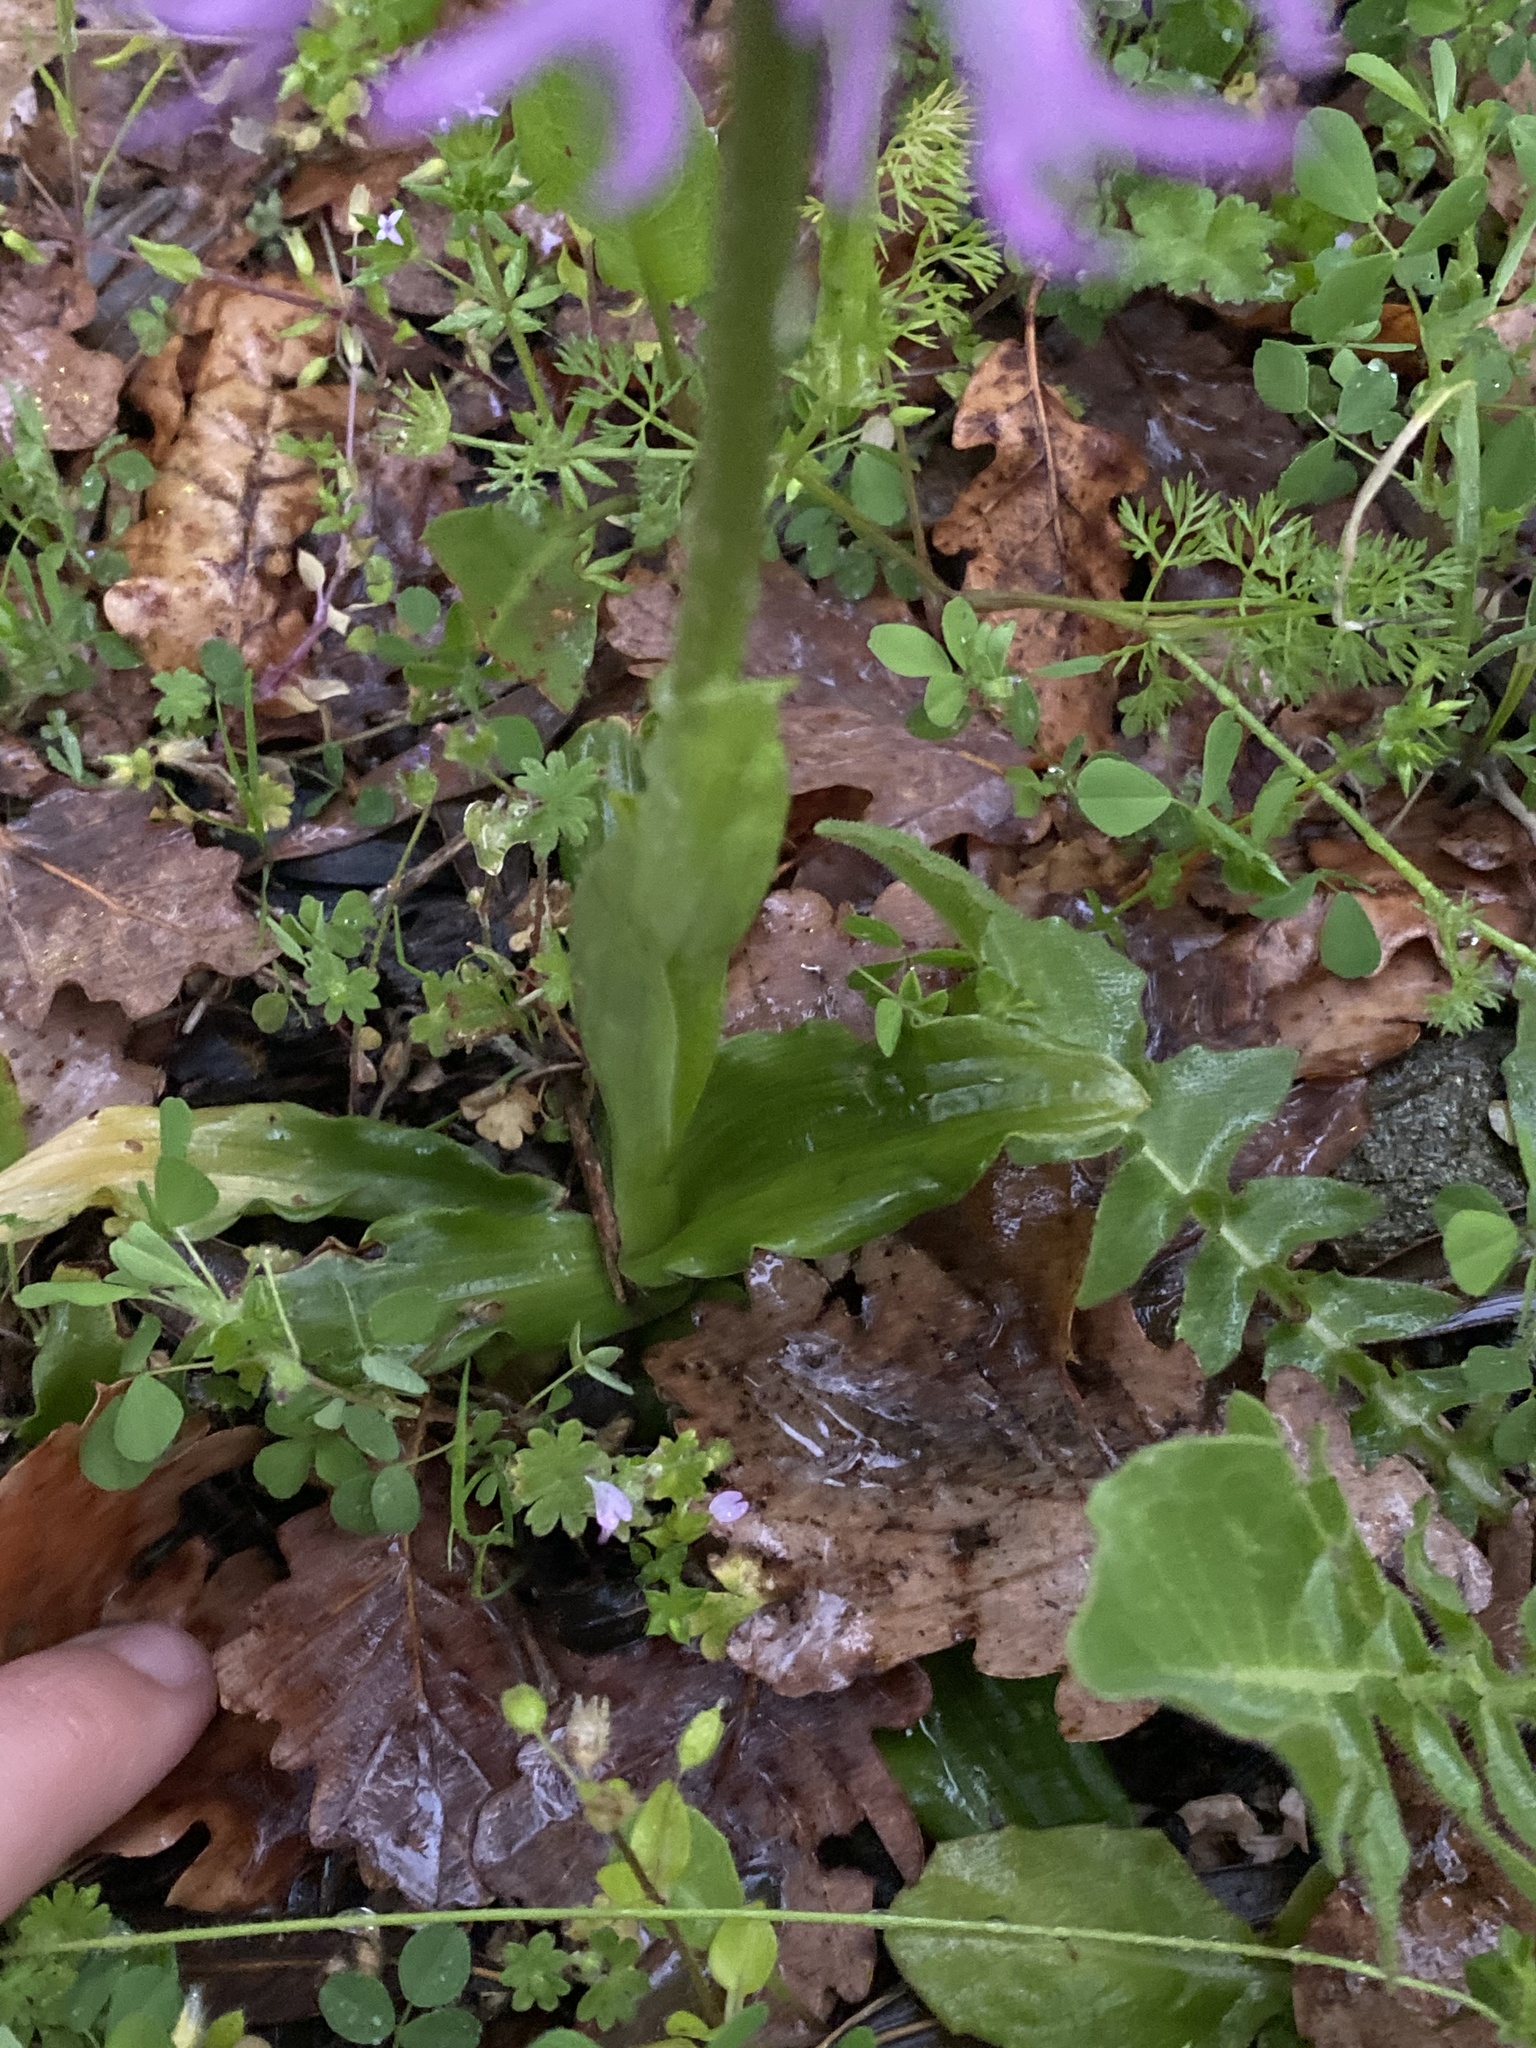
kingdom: Plantae
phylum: Tracheophyta
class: Liliopsida
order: Asparagales
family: Orchidaceae
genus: Orchis
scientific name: Orchis italica
